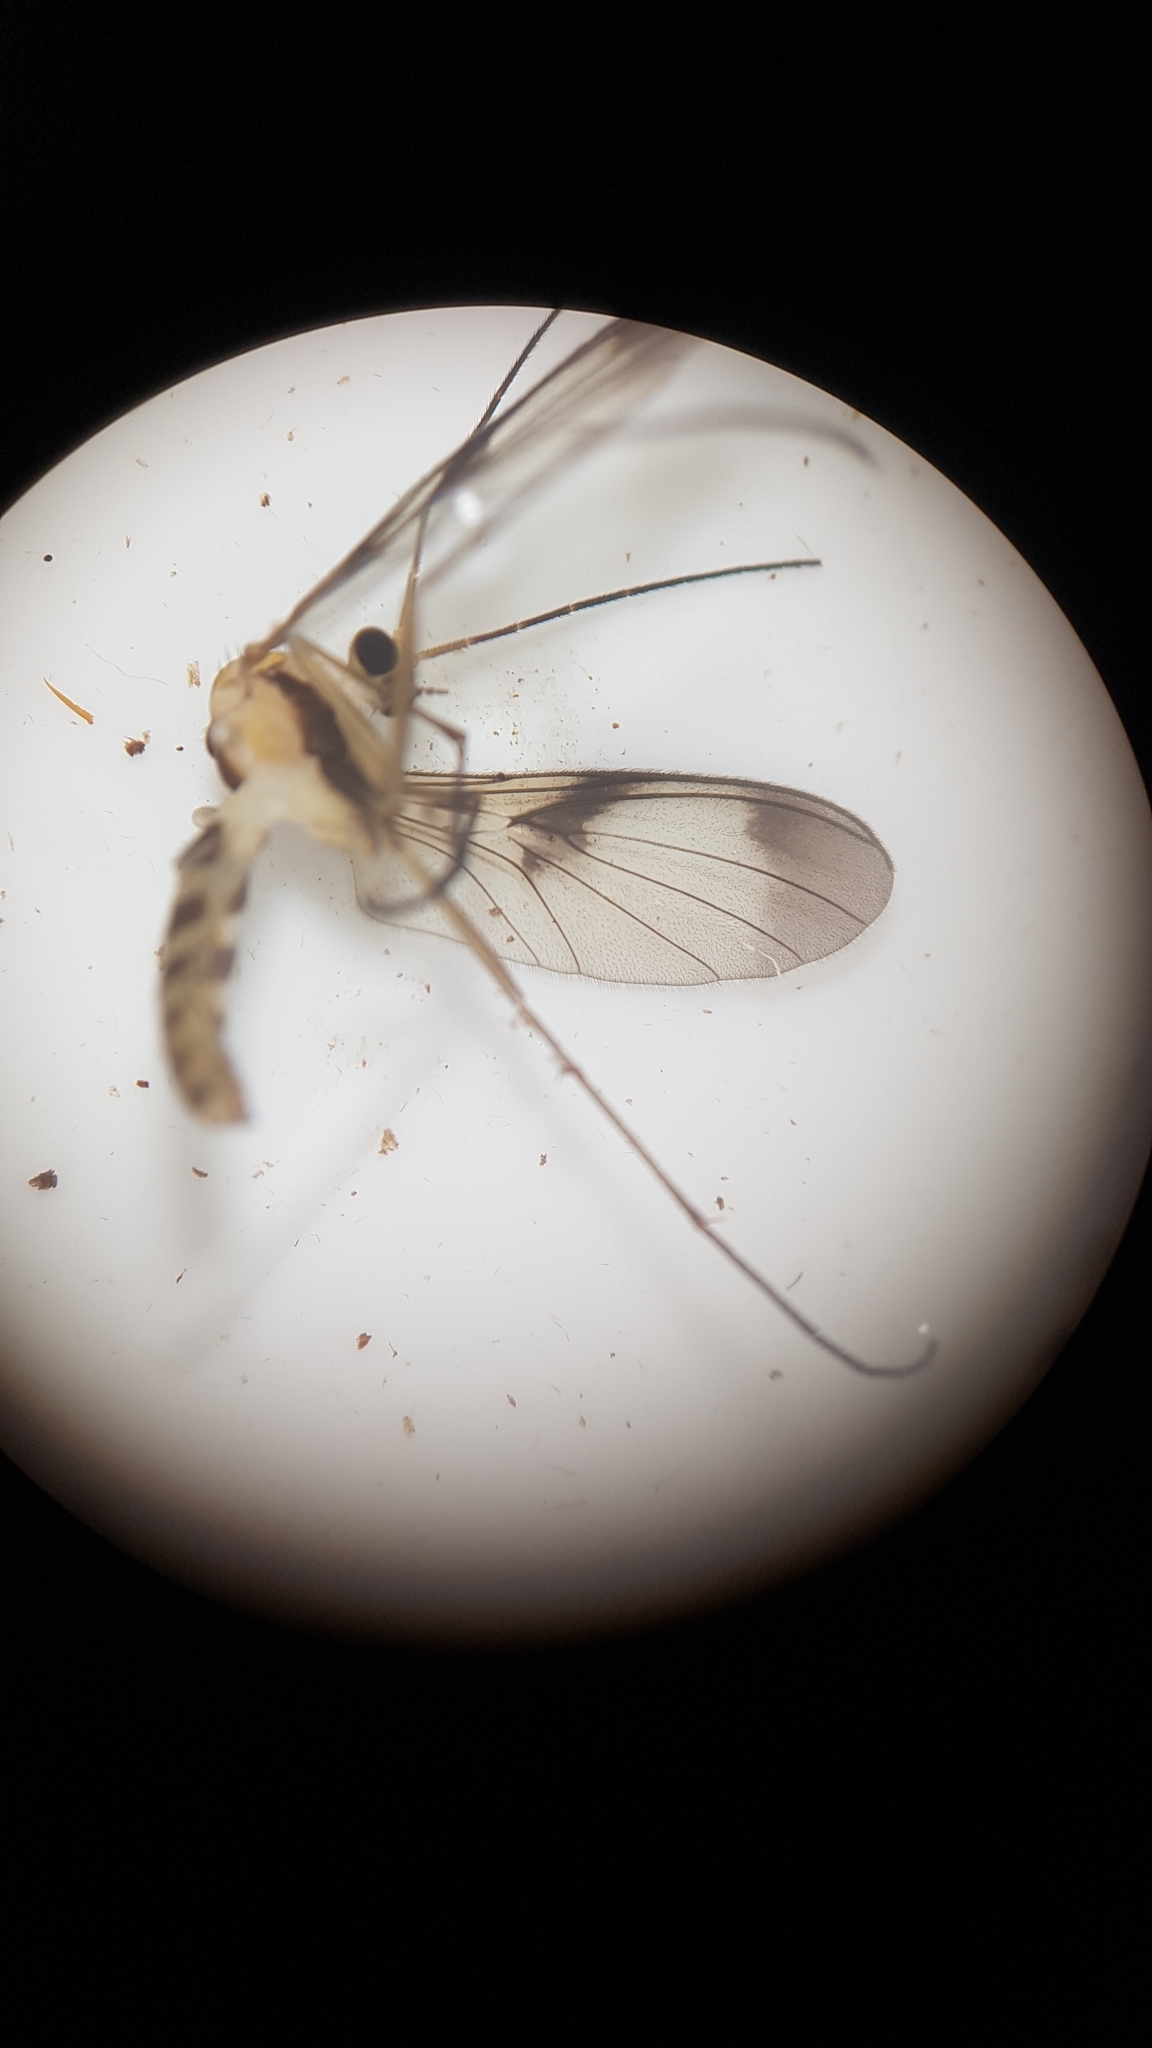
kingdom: Animalia
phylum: Arthropoda
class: Insecta
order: Diptera
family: Keroplatidae
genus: Macrocera
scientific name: Macrocera scoparia
